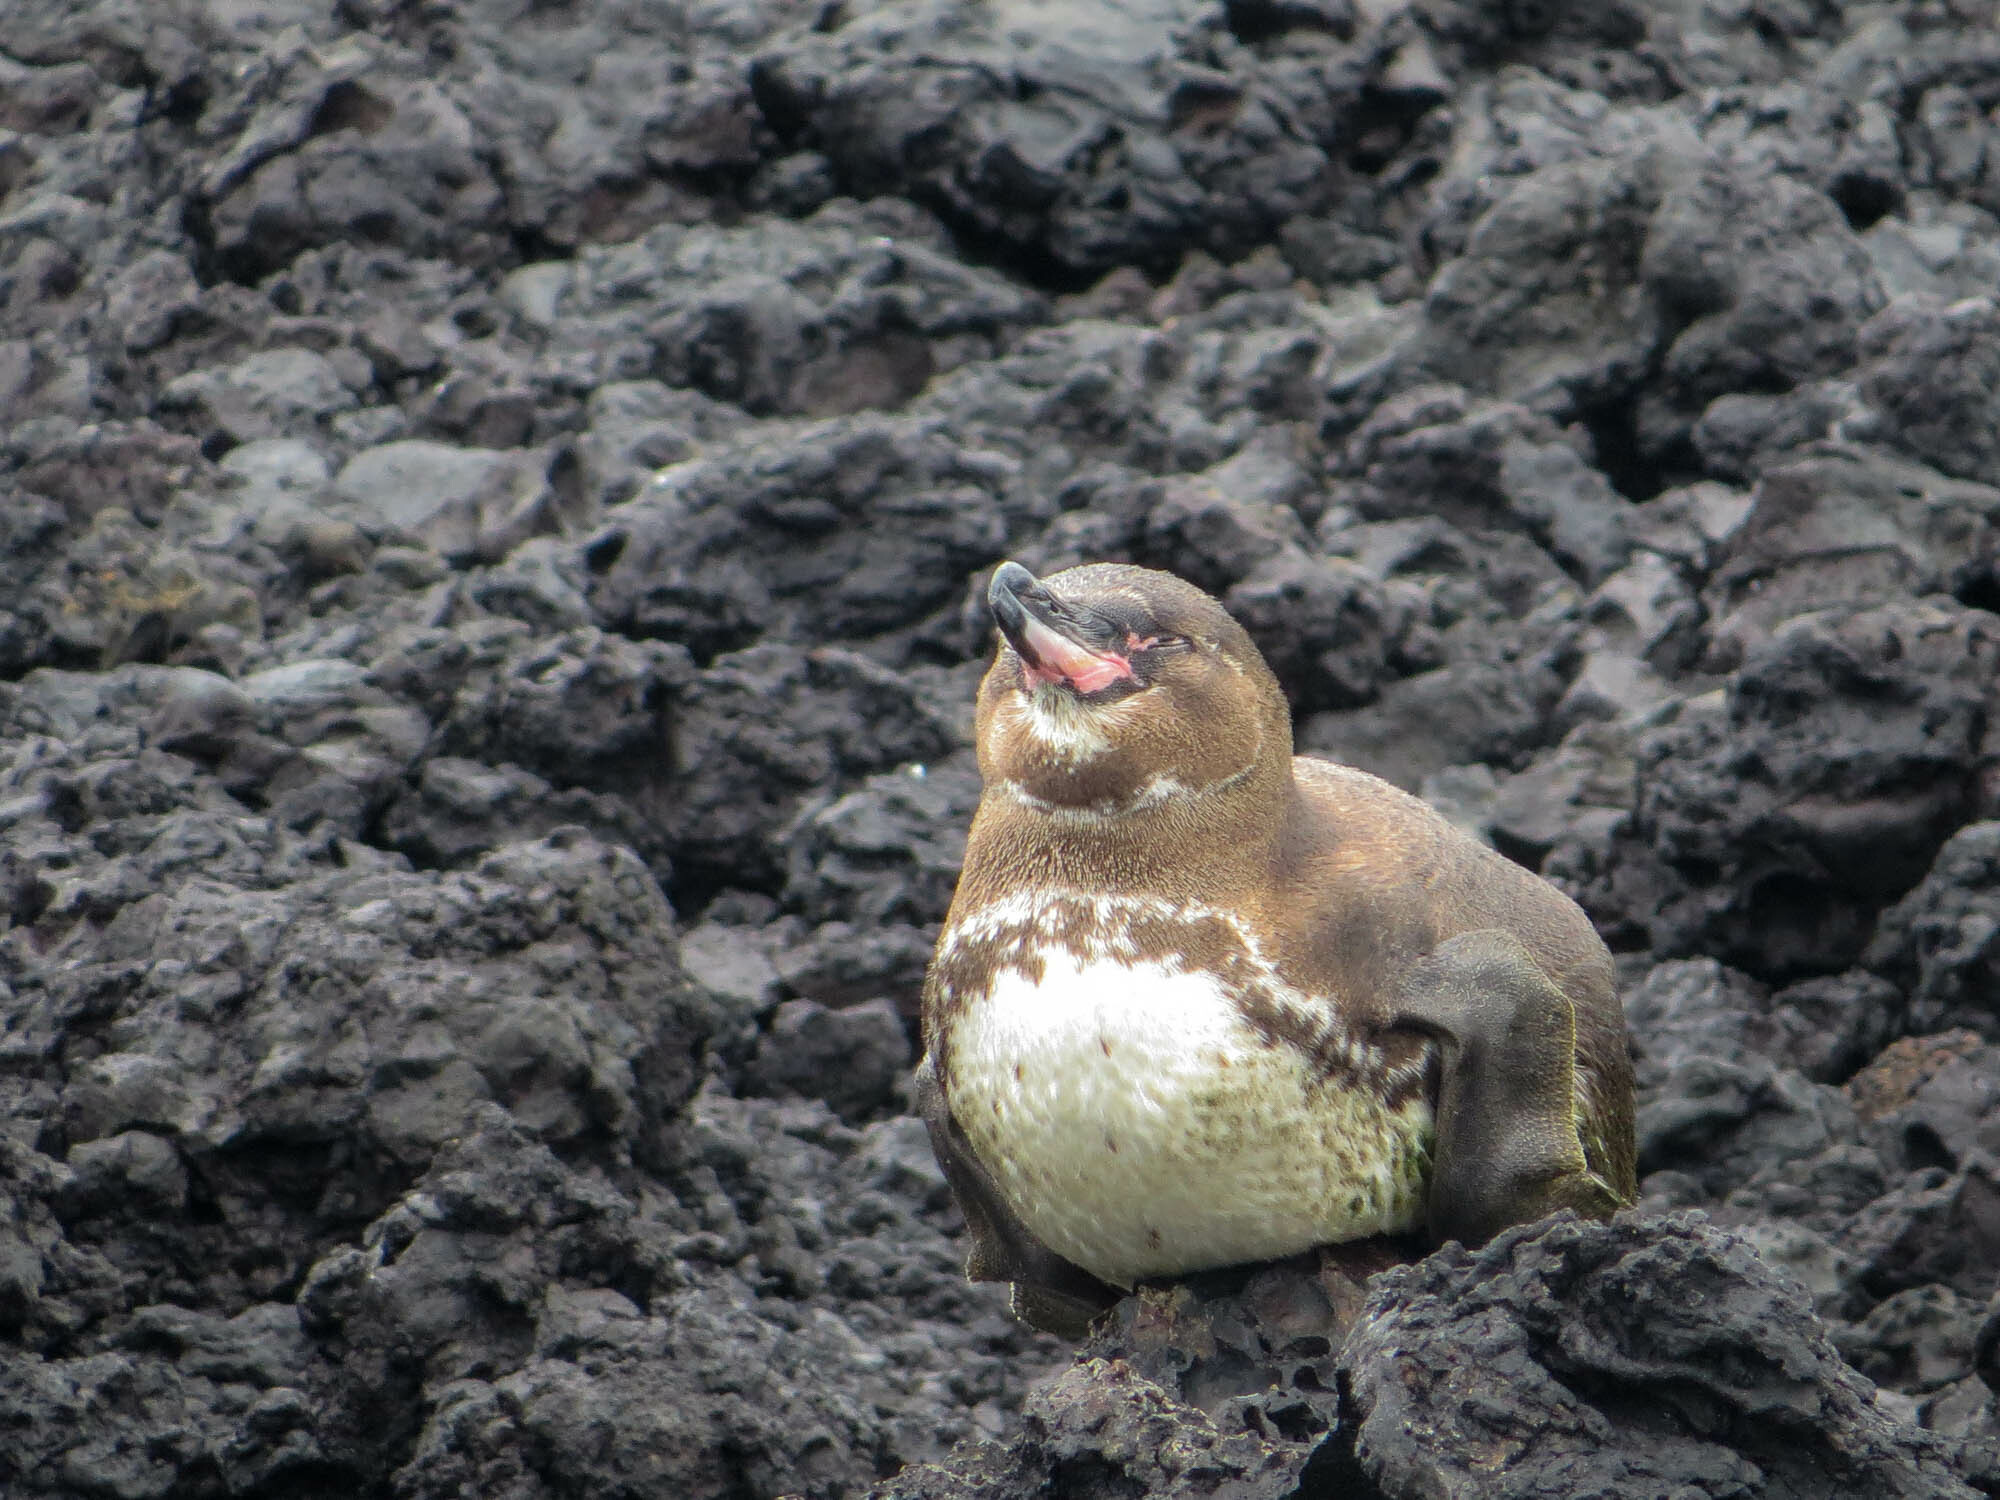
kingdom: Animalia
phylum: Chordata
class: Aves
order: Sphenisciformes
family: Spheniscidae
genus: Spheniscus
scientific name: Spheniscus mendiculus
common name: Galapagos penguin
